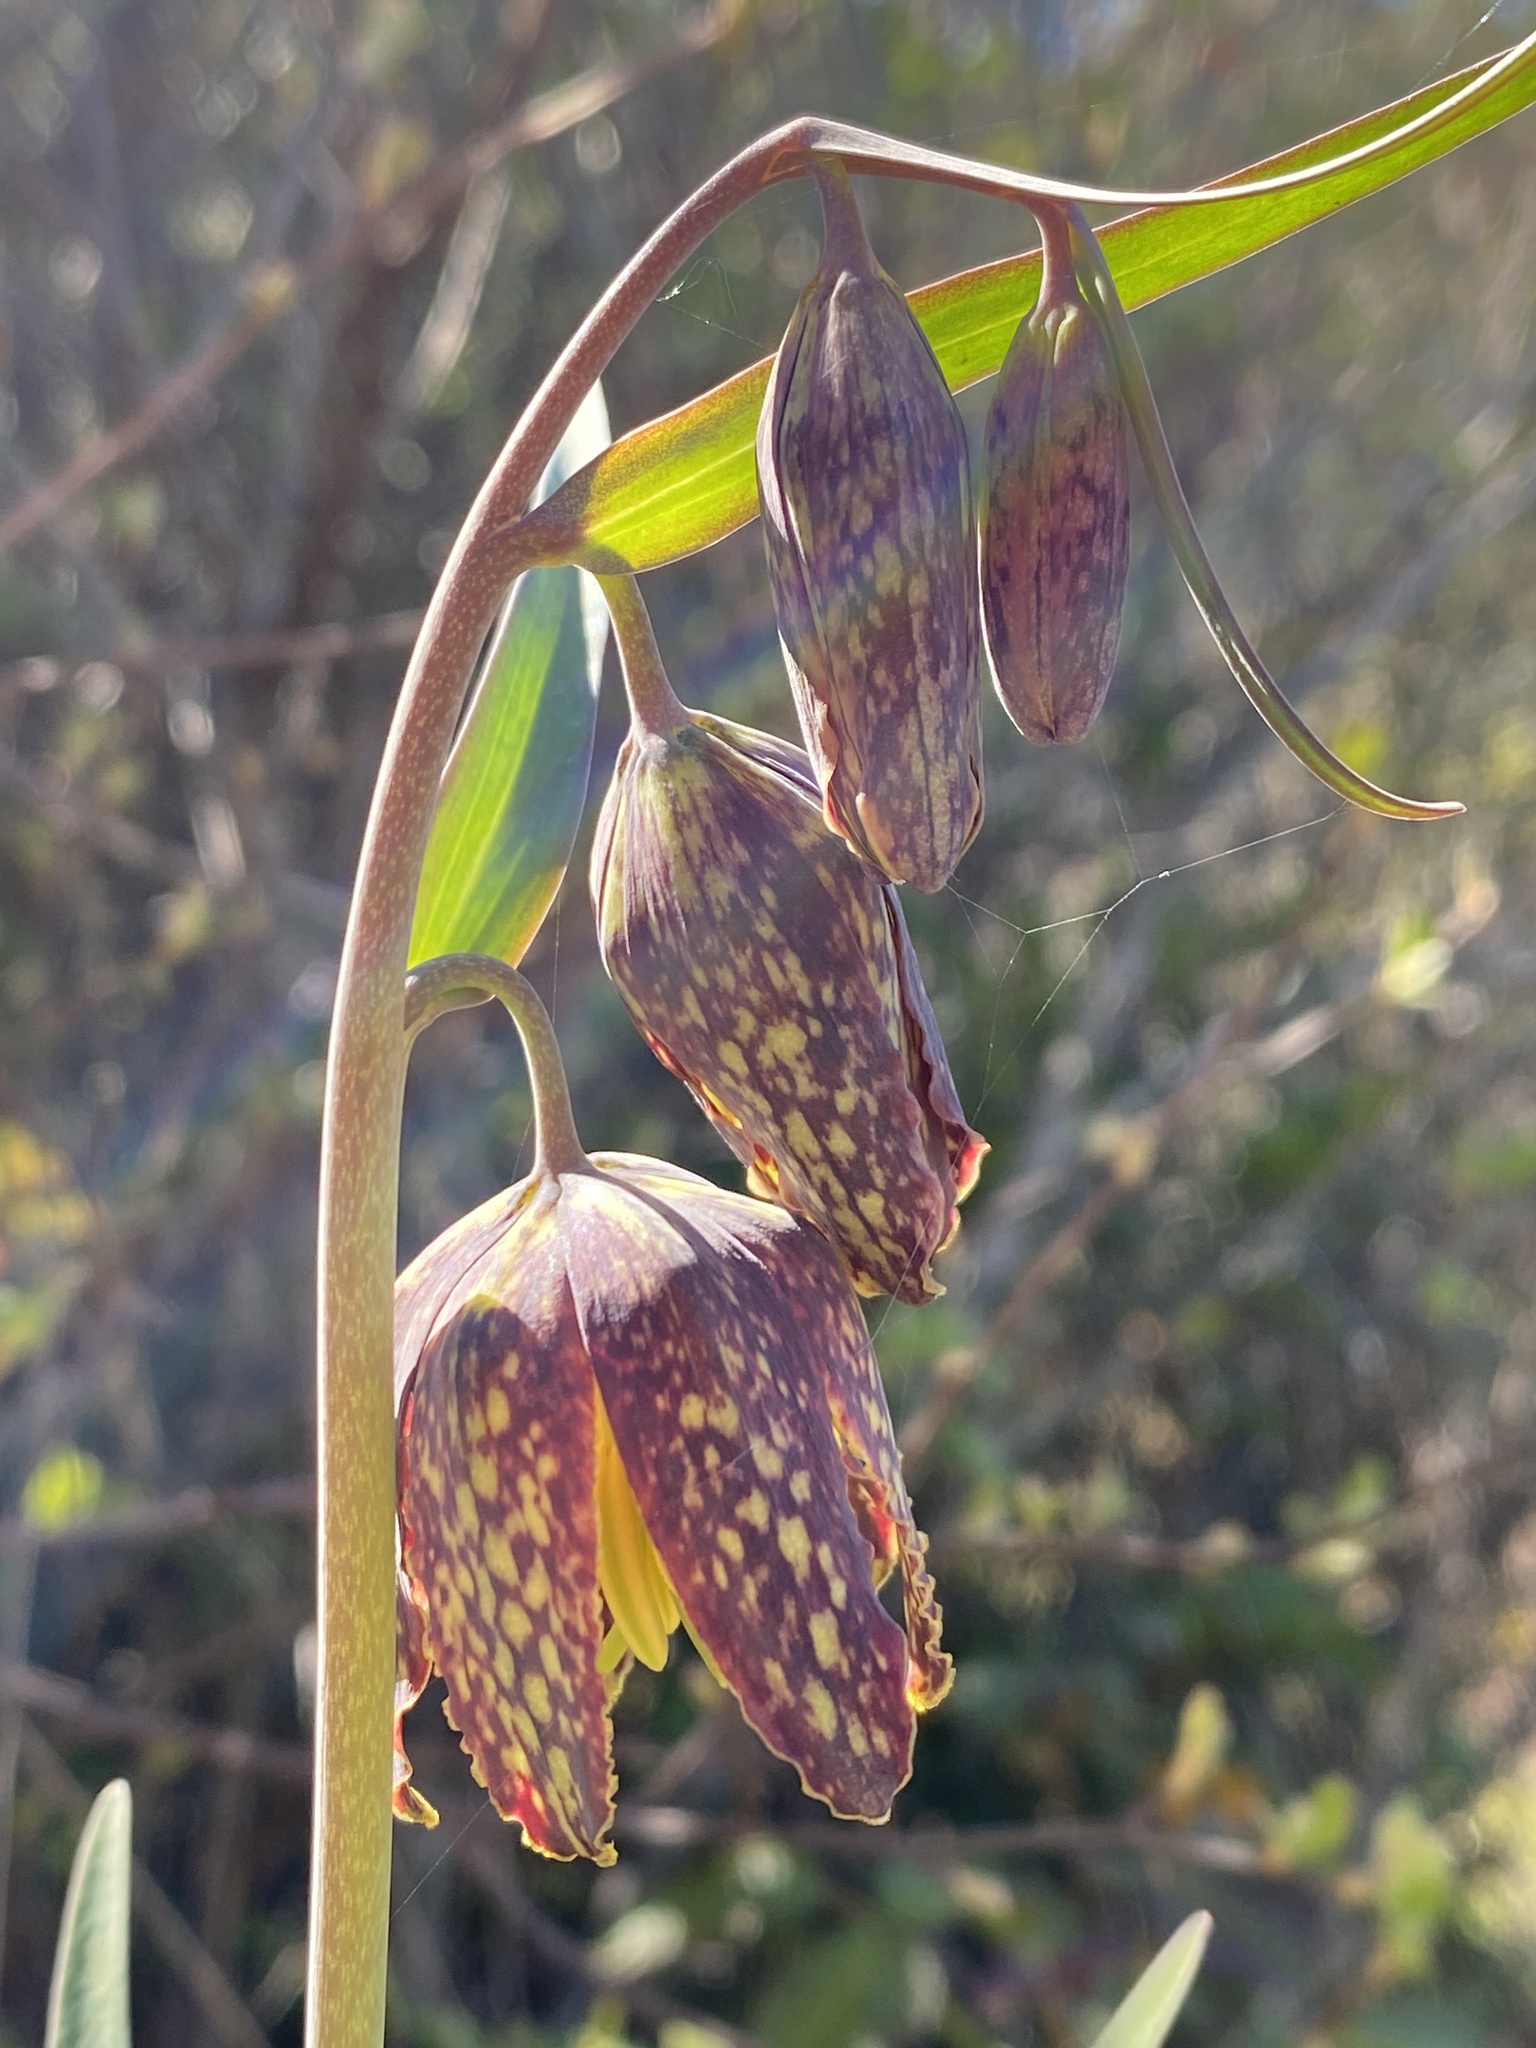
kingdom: Plantae
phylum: Tracheophyta
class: Liliopsida
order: Liliales
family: Liliaceae
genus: Fritillaria
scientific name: Fritillaria affinis
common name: Ojai fritillary
